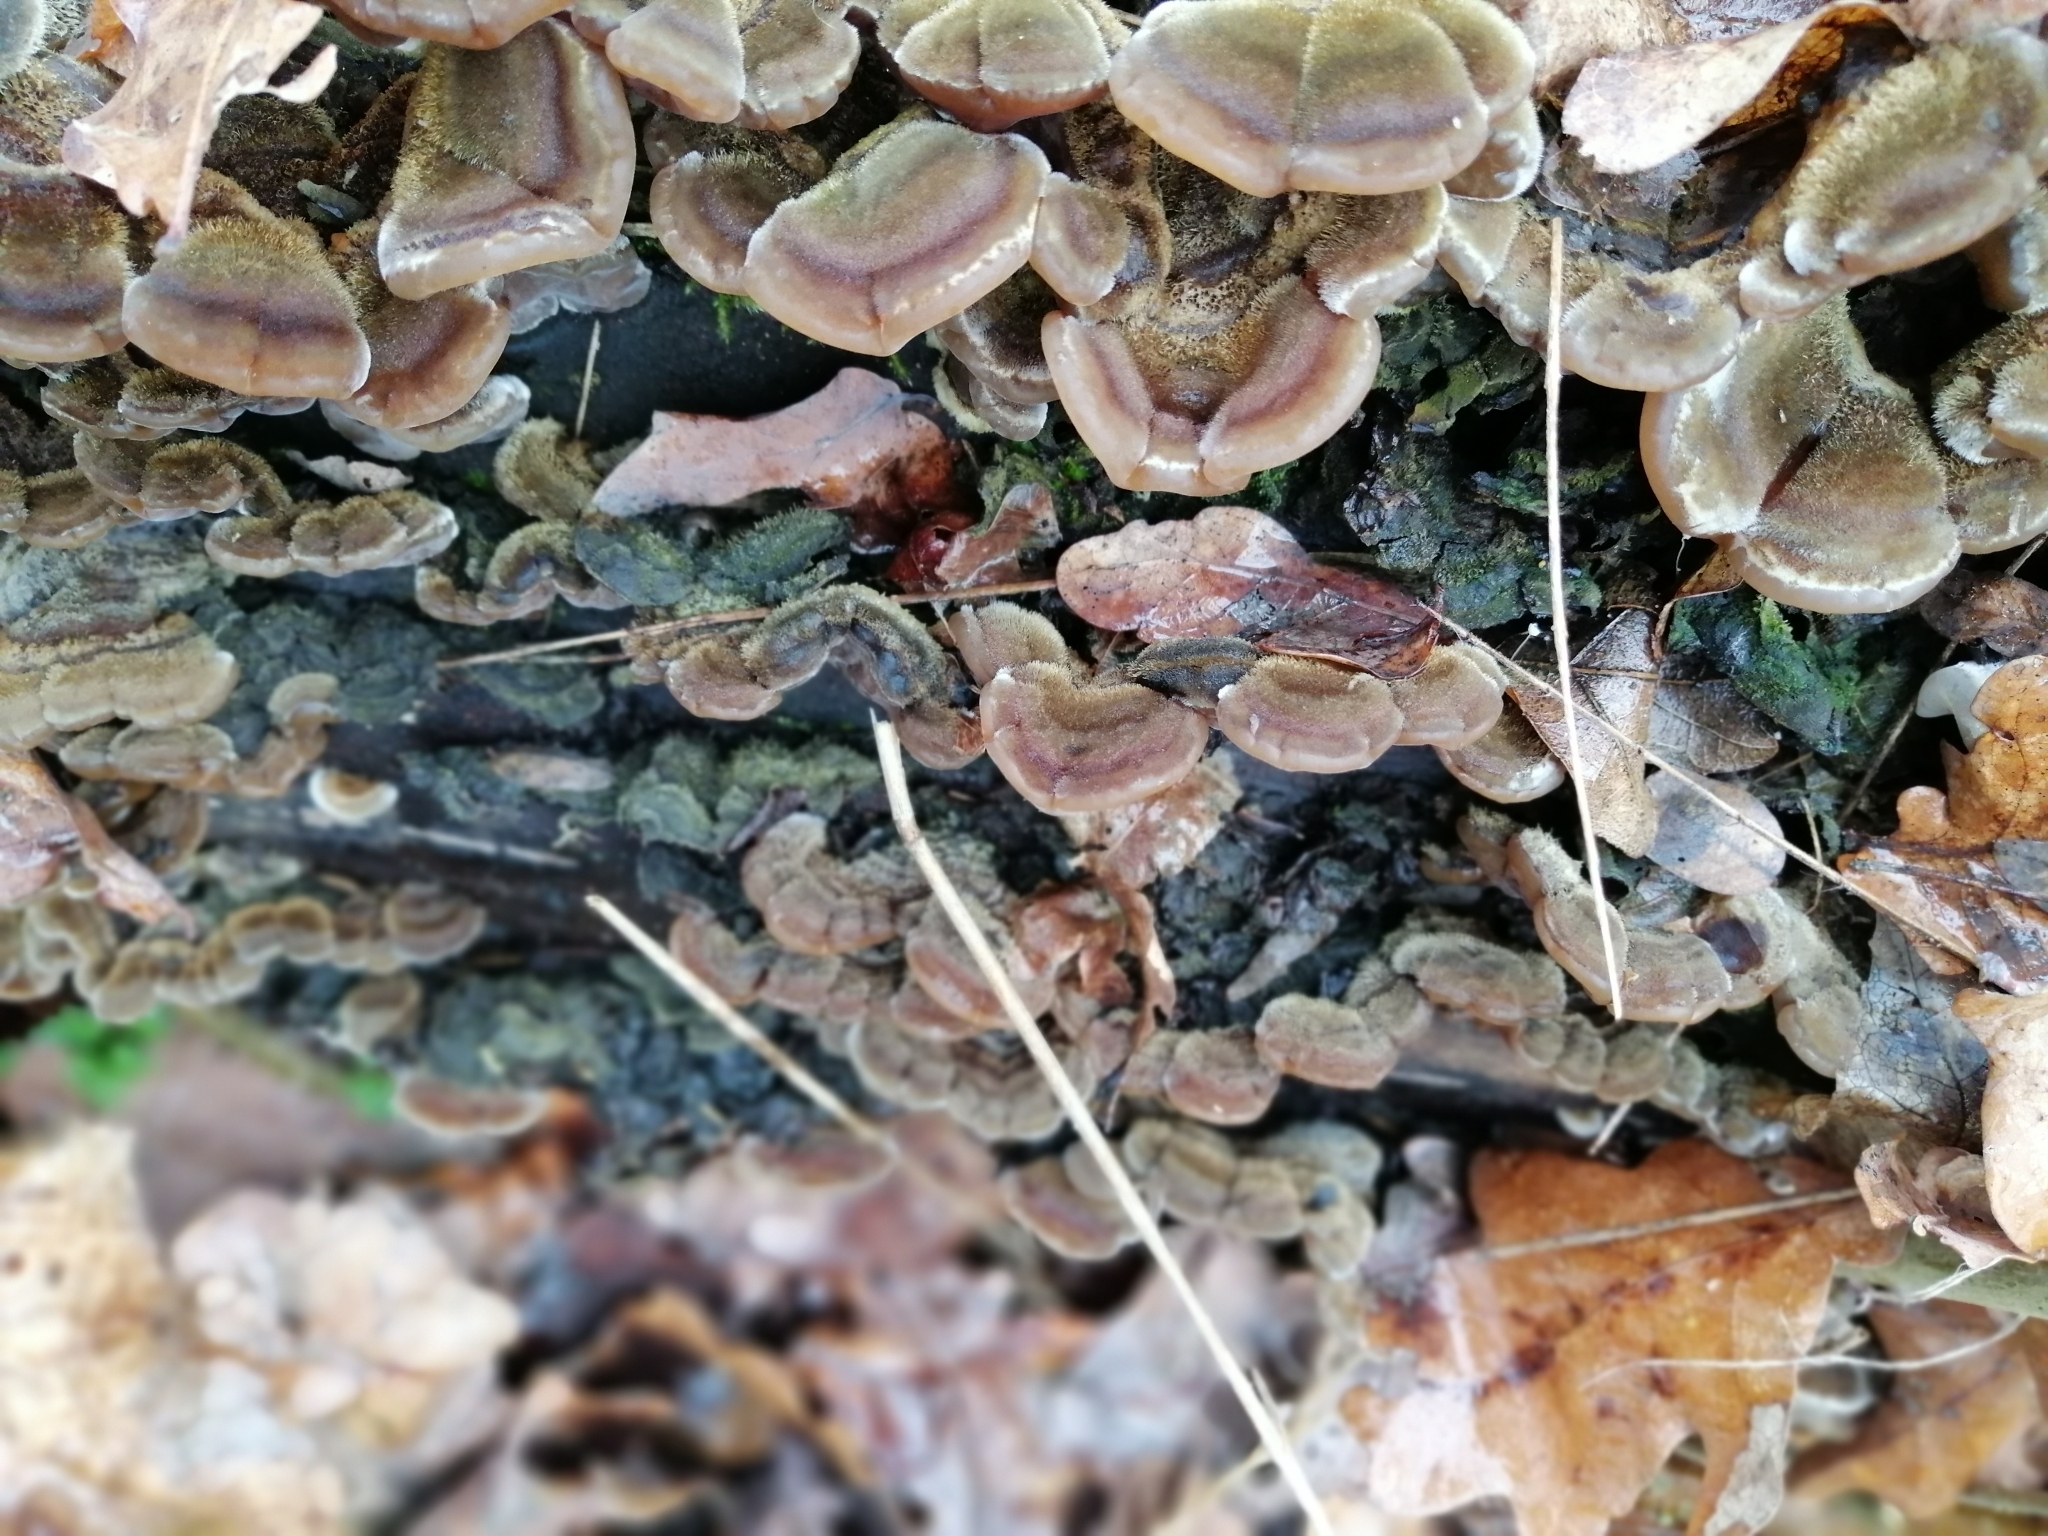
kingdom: Fungi
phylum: Basidiomycota
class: Agaricomycetes
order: Auriculariales
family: Auriculariaceae
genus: Auricularia
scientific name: Auricularia mesenterica
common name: Tripe fungus
